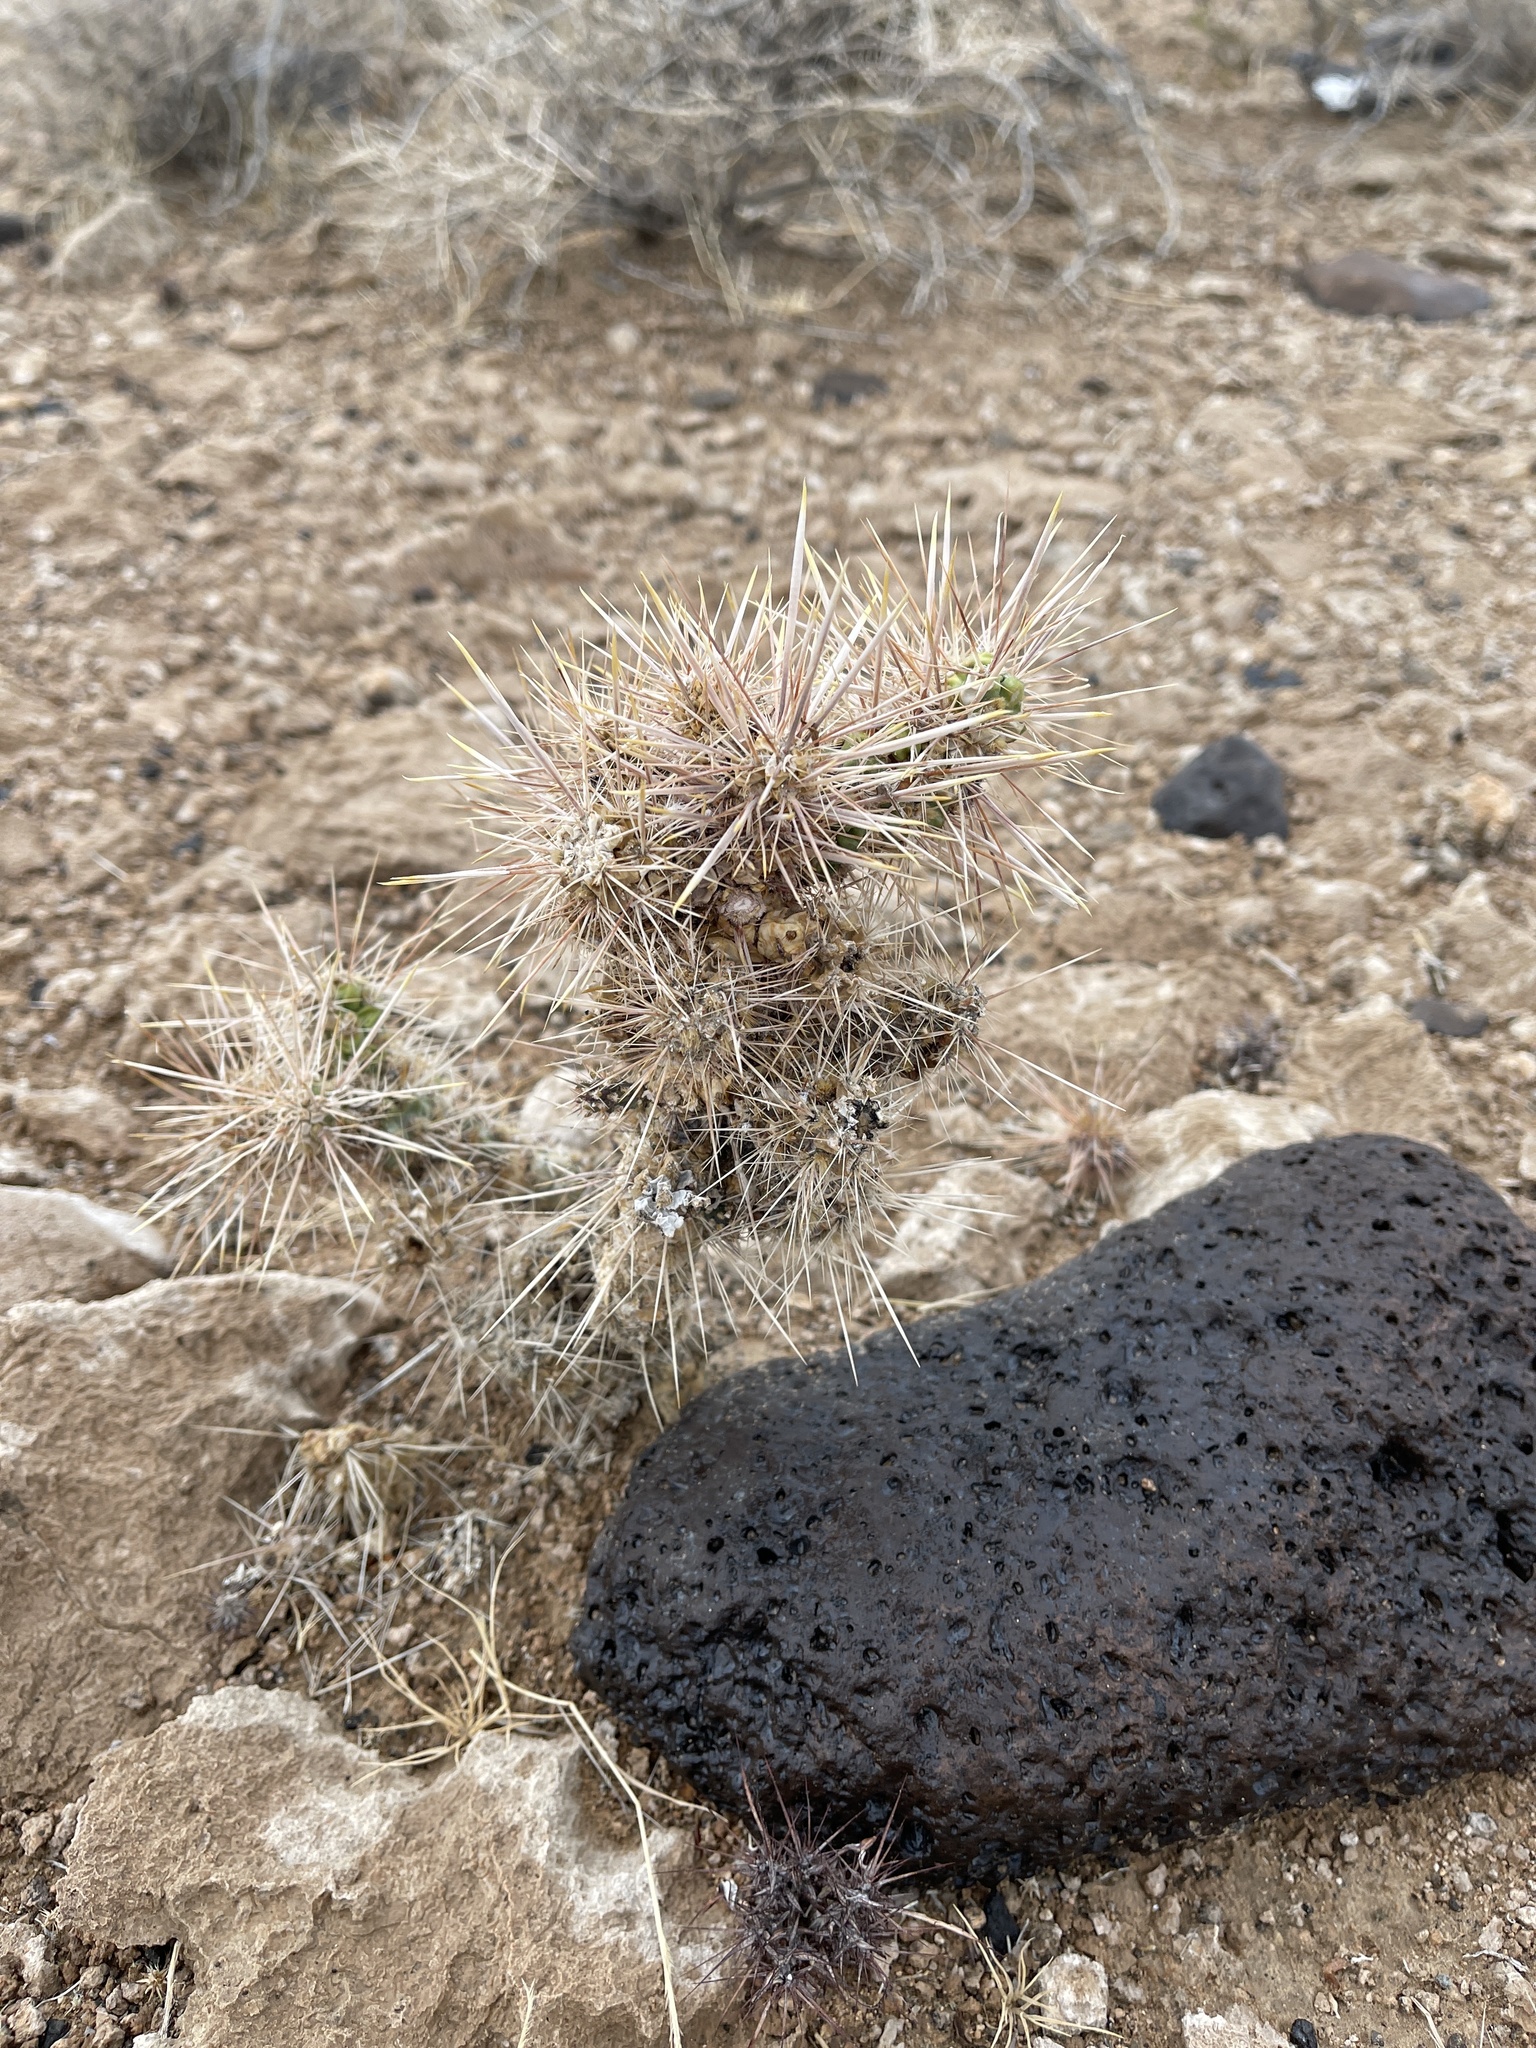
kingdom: Plantae
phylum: Tracheophyta
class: Magnoliopsida
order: Caryophyllales
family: Cactaceae
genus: Cylindropuntia
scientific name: Cylindropuntia echinocarpa
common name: Ground cholla
